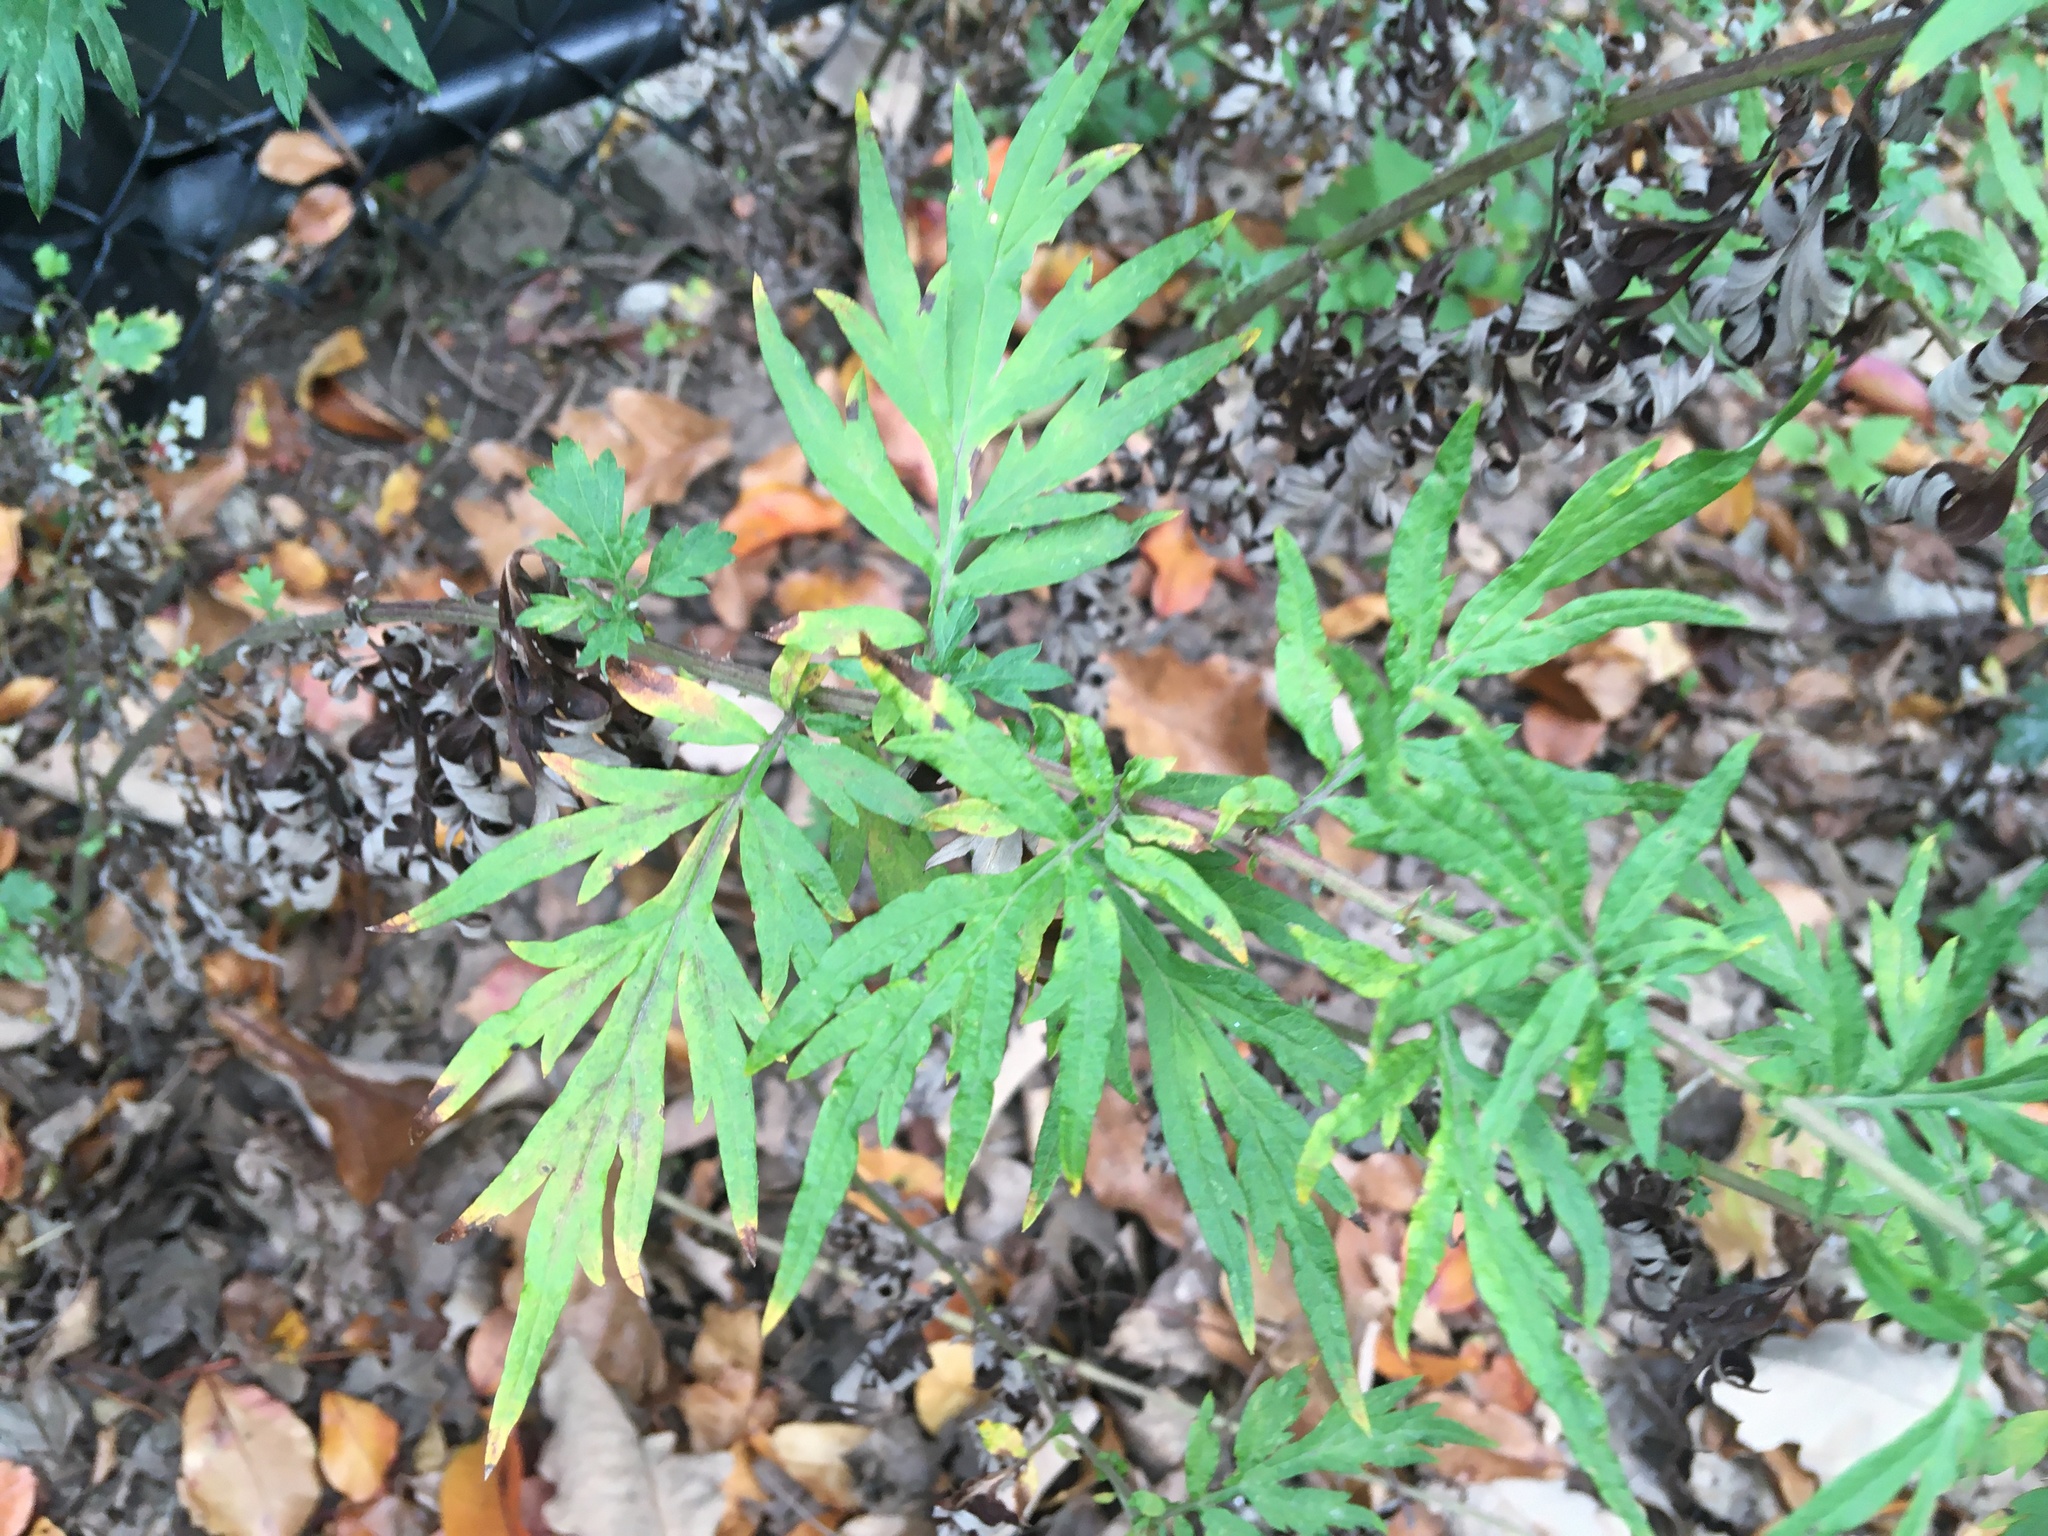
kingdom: Plantae
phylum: Tracheophyta
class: Magnoliopsida
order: Asterales
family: Asteraceae
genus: Artemisia
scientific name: Artemisia vulgaris
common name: Mugwort
